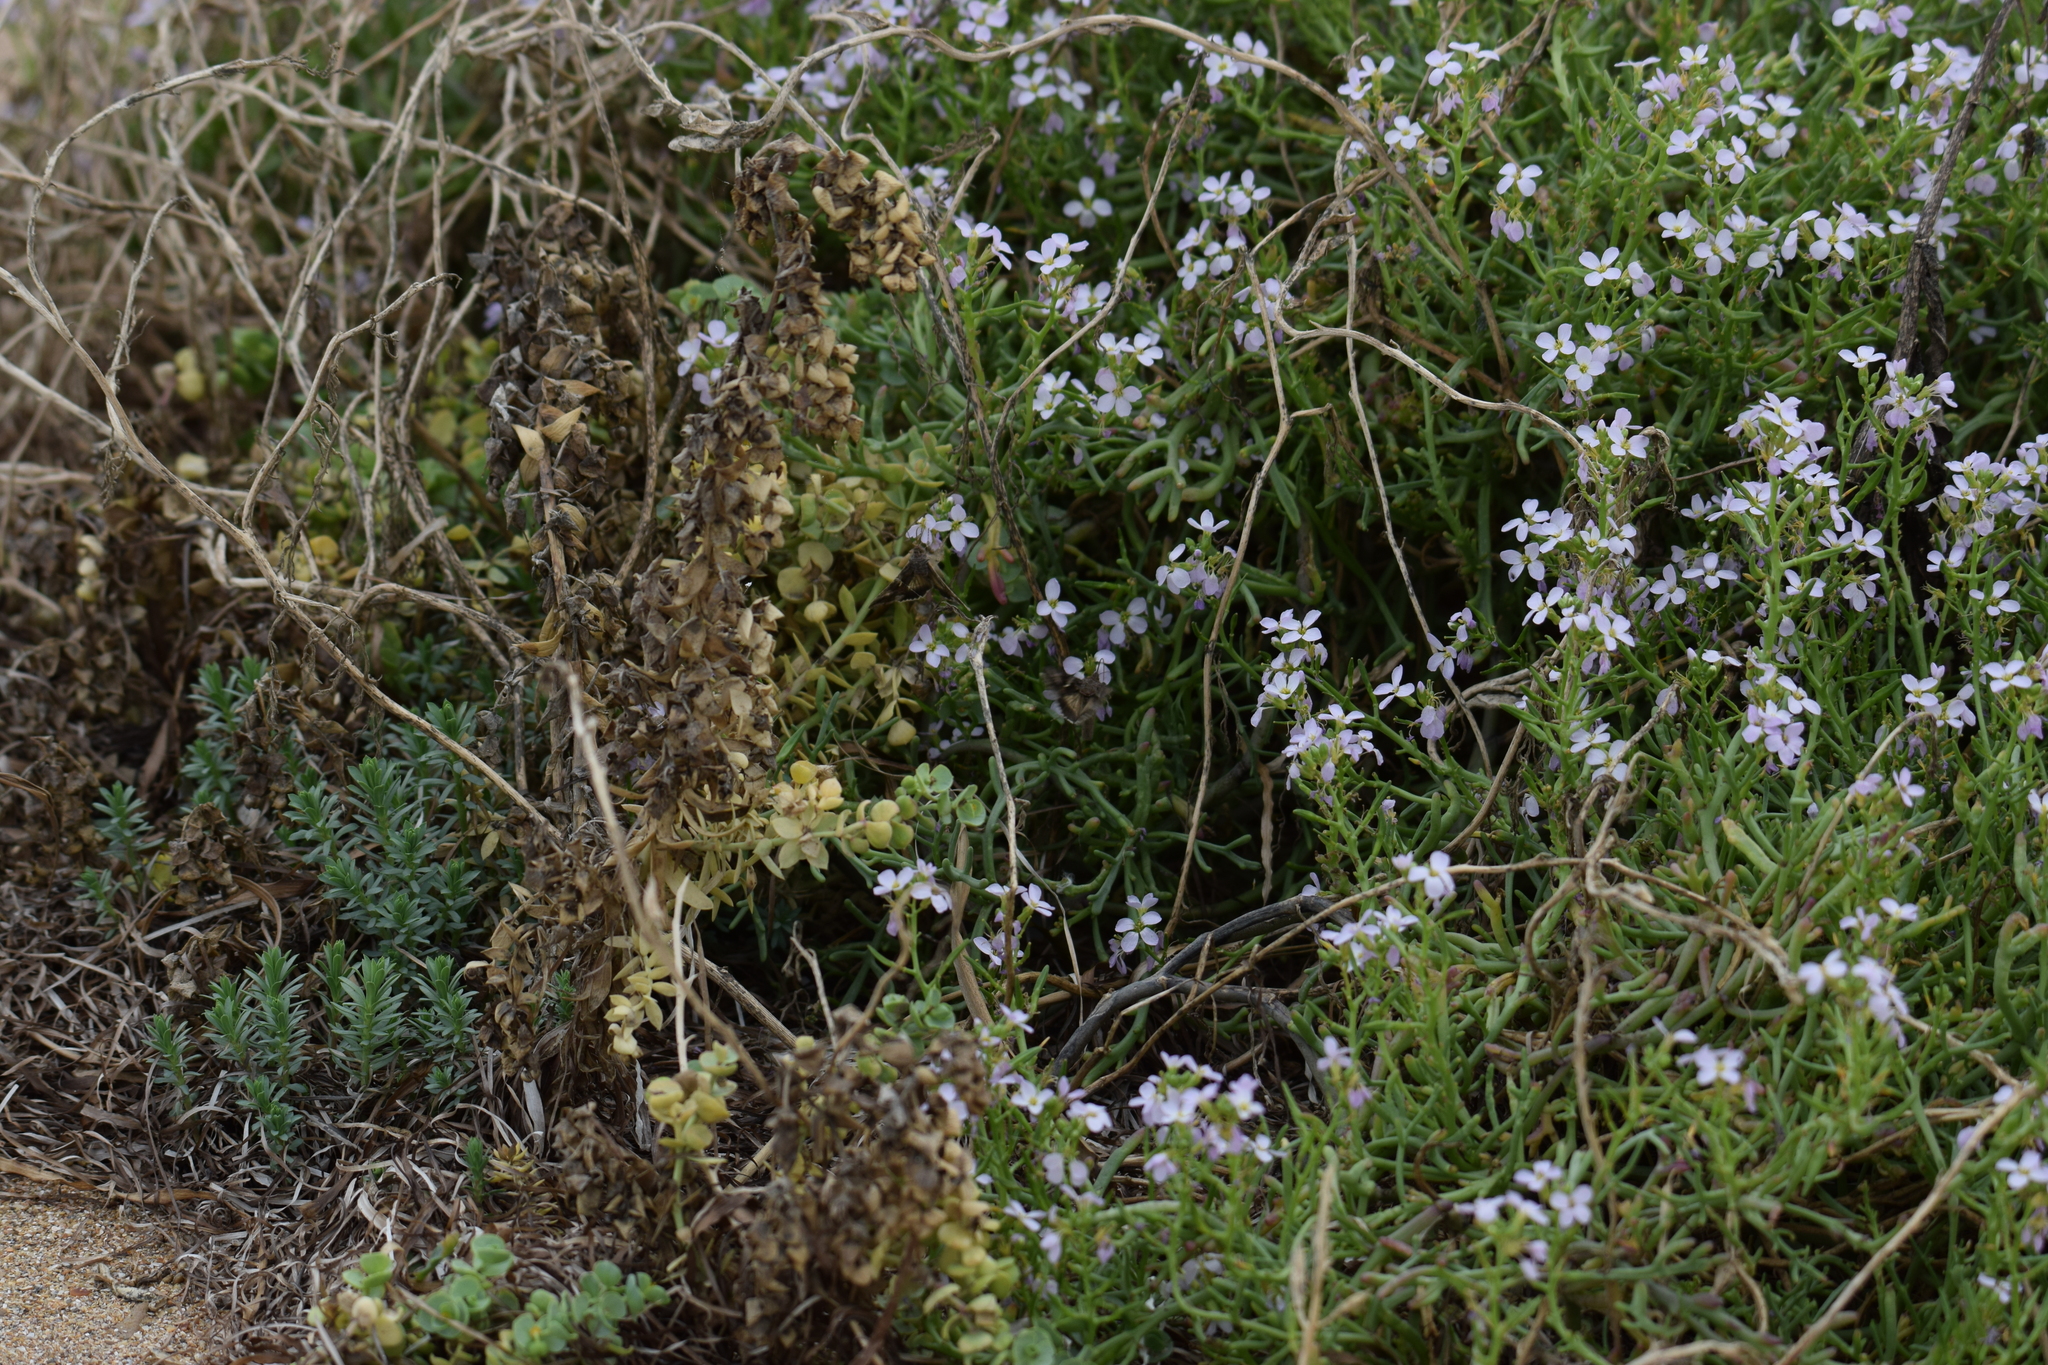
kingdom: Plantae
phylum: Tracheophyta
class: Magnoliopsida
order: Brassicales
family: Brassicaceae
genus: Cakile
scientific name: Cakile maritima
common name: Sea rocket
